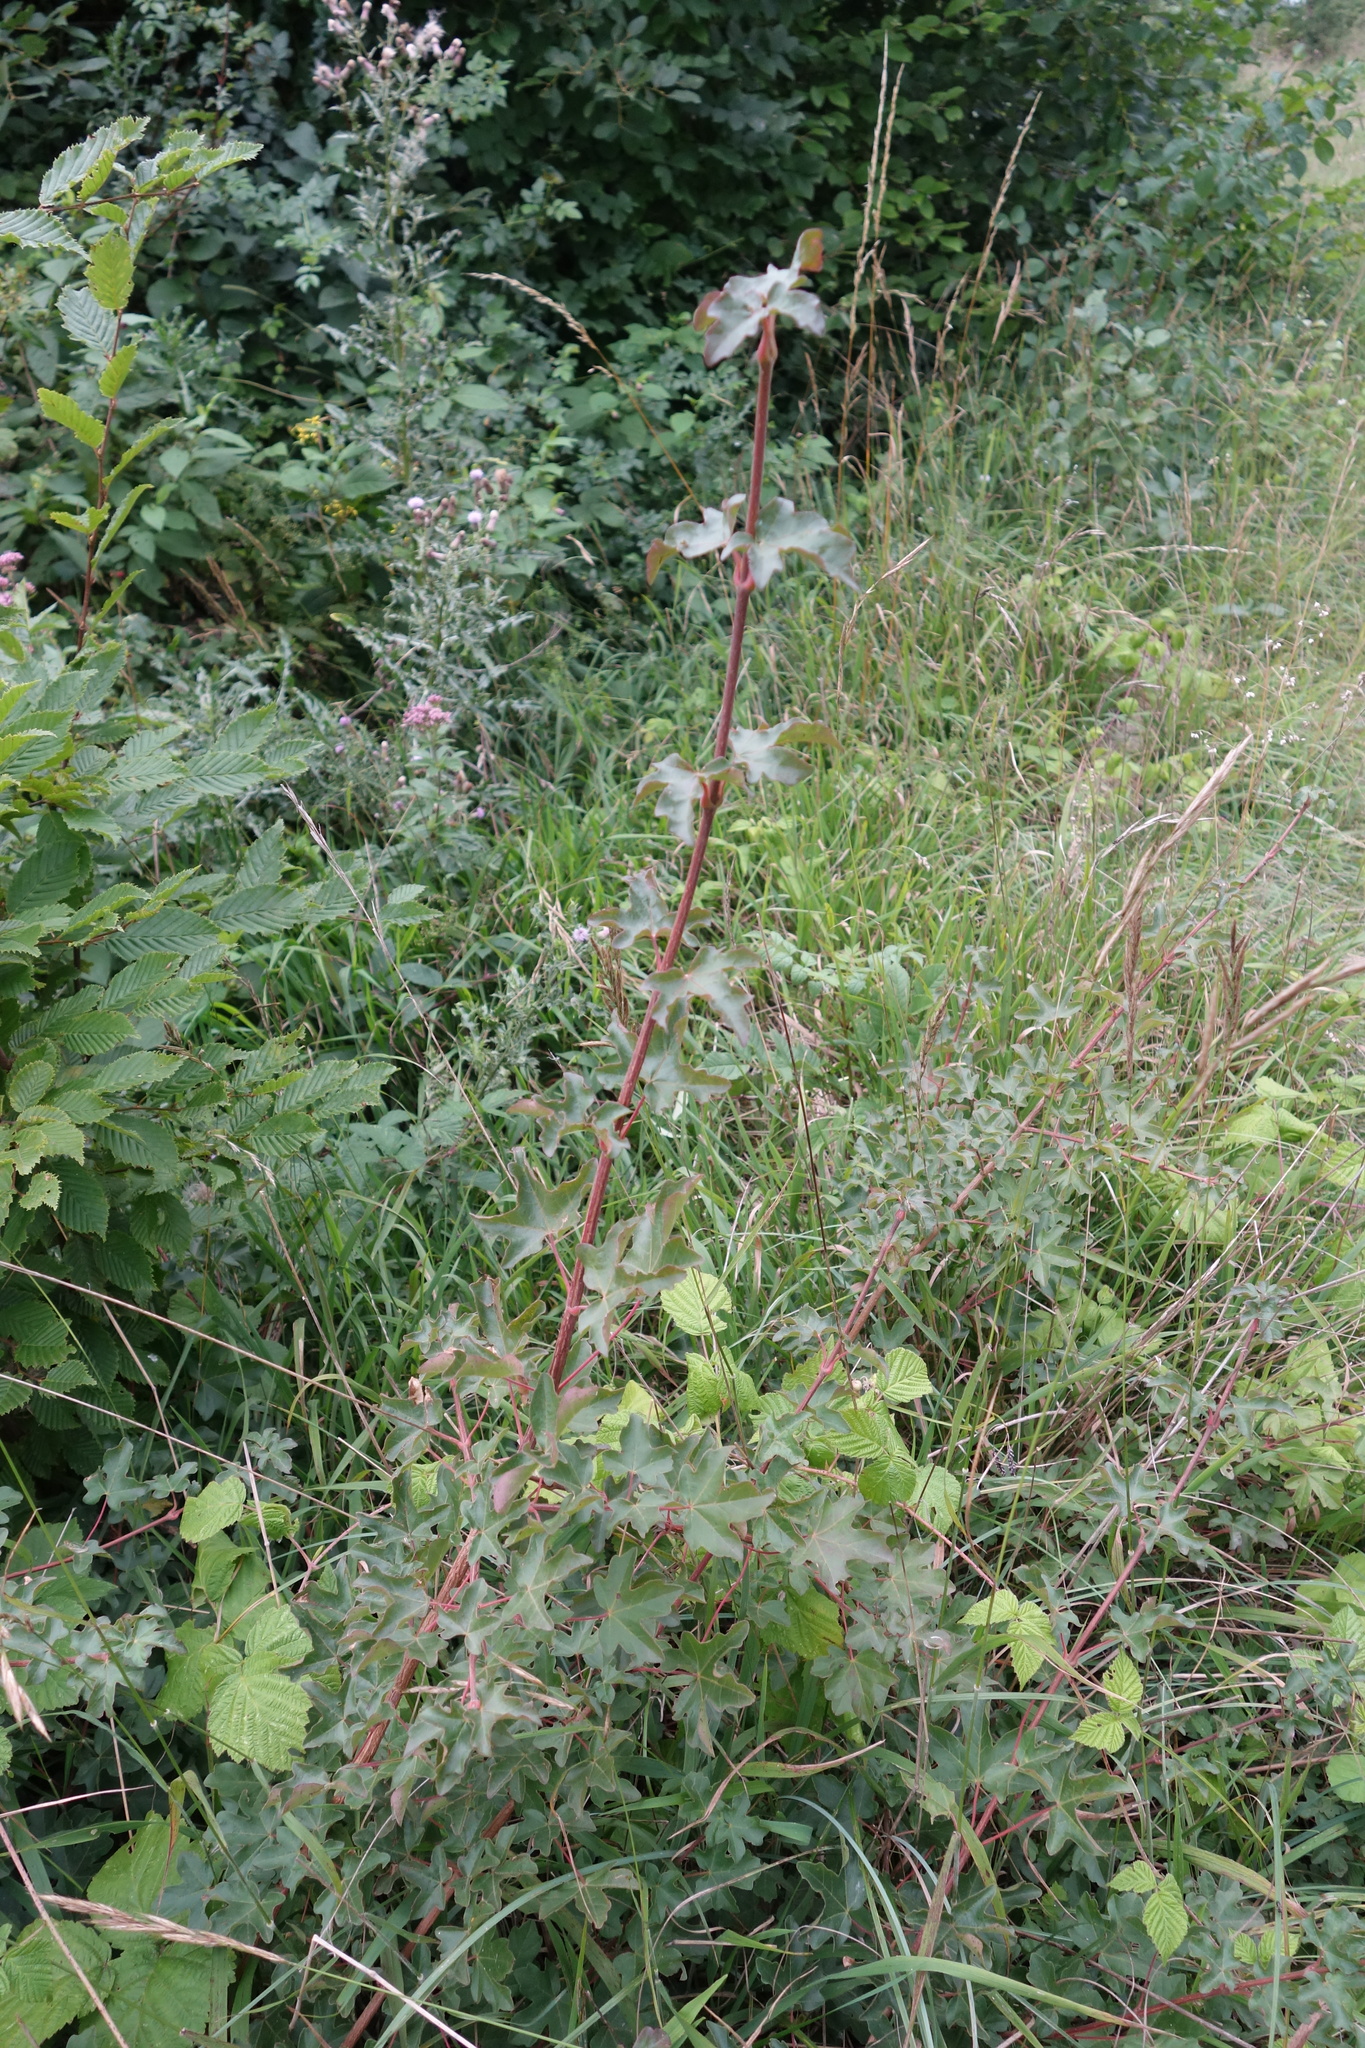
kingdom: Plantae
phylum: Tracheophyta
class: Magnoliopsida
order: Sapindales
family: Sapindaceae
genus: Acer
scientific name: Acer campestre
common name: Field maple
